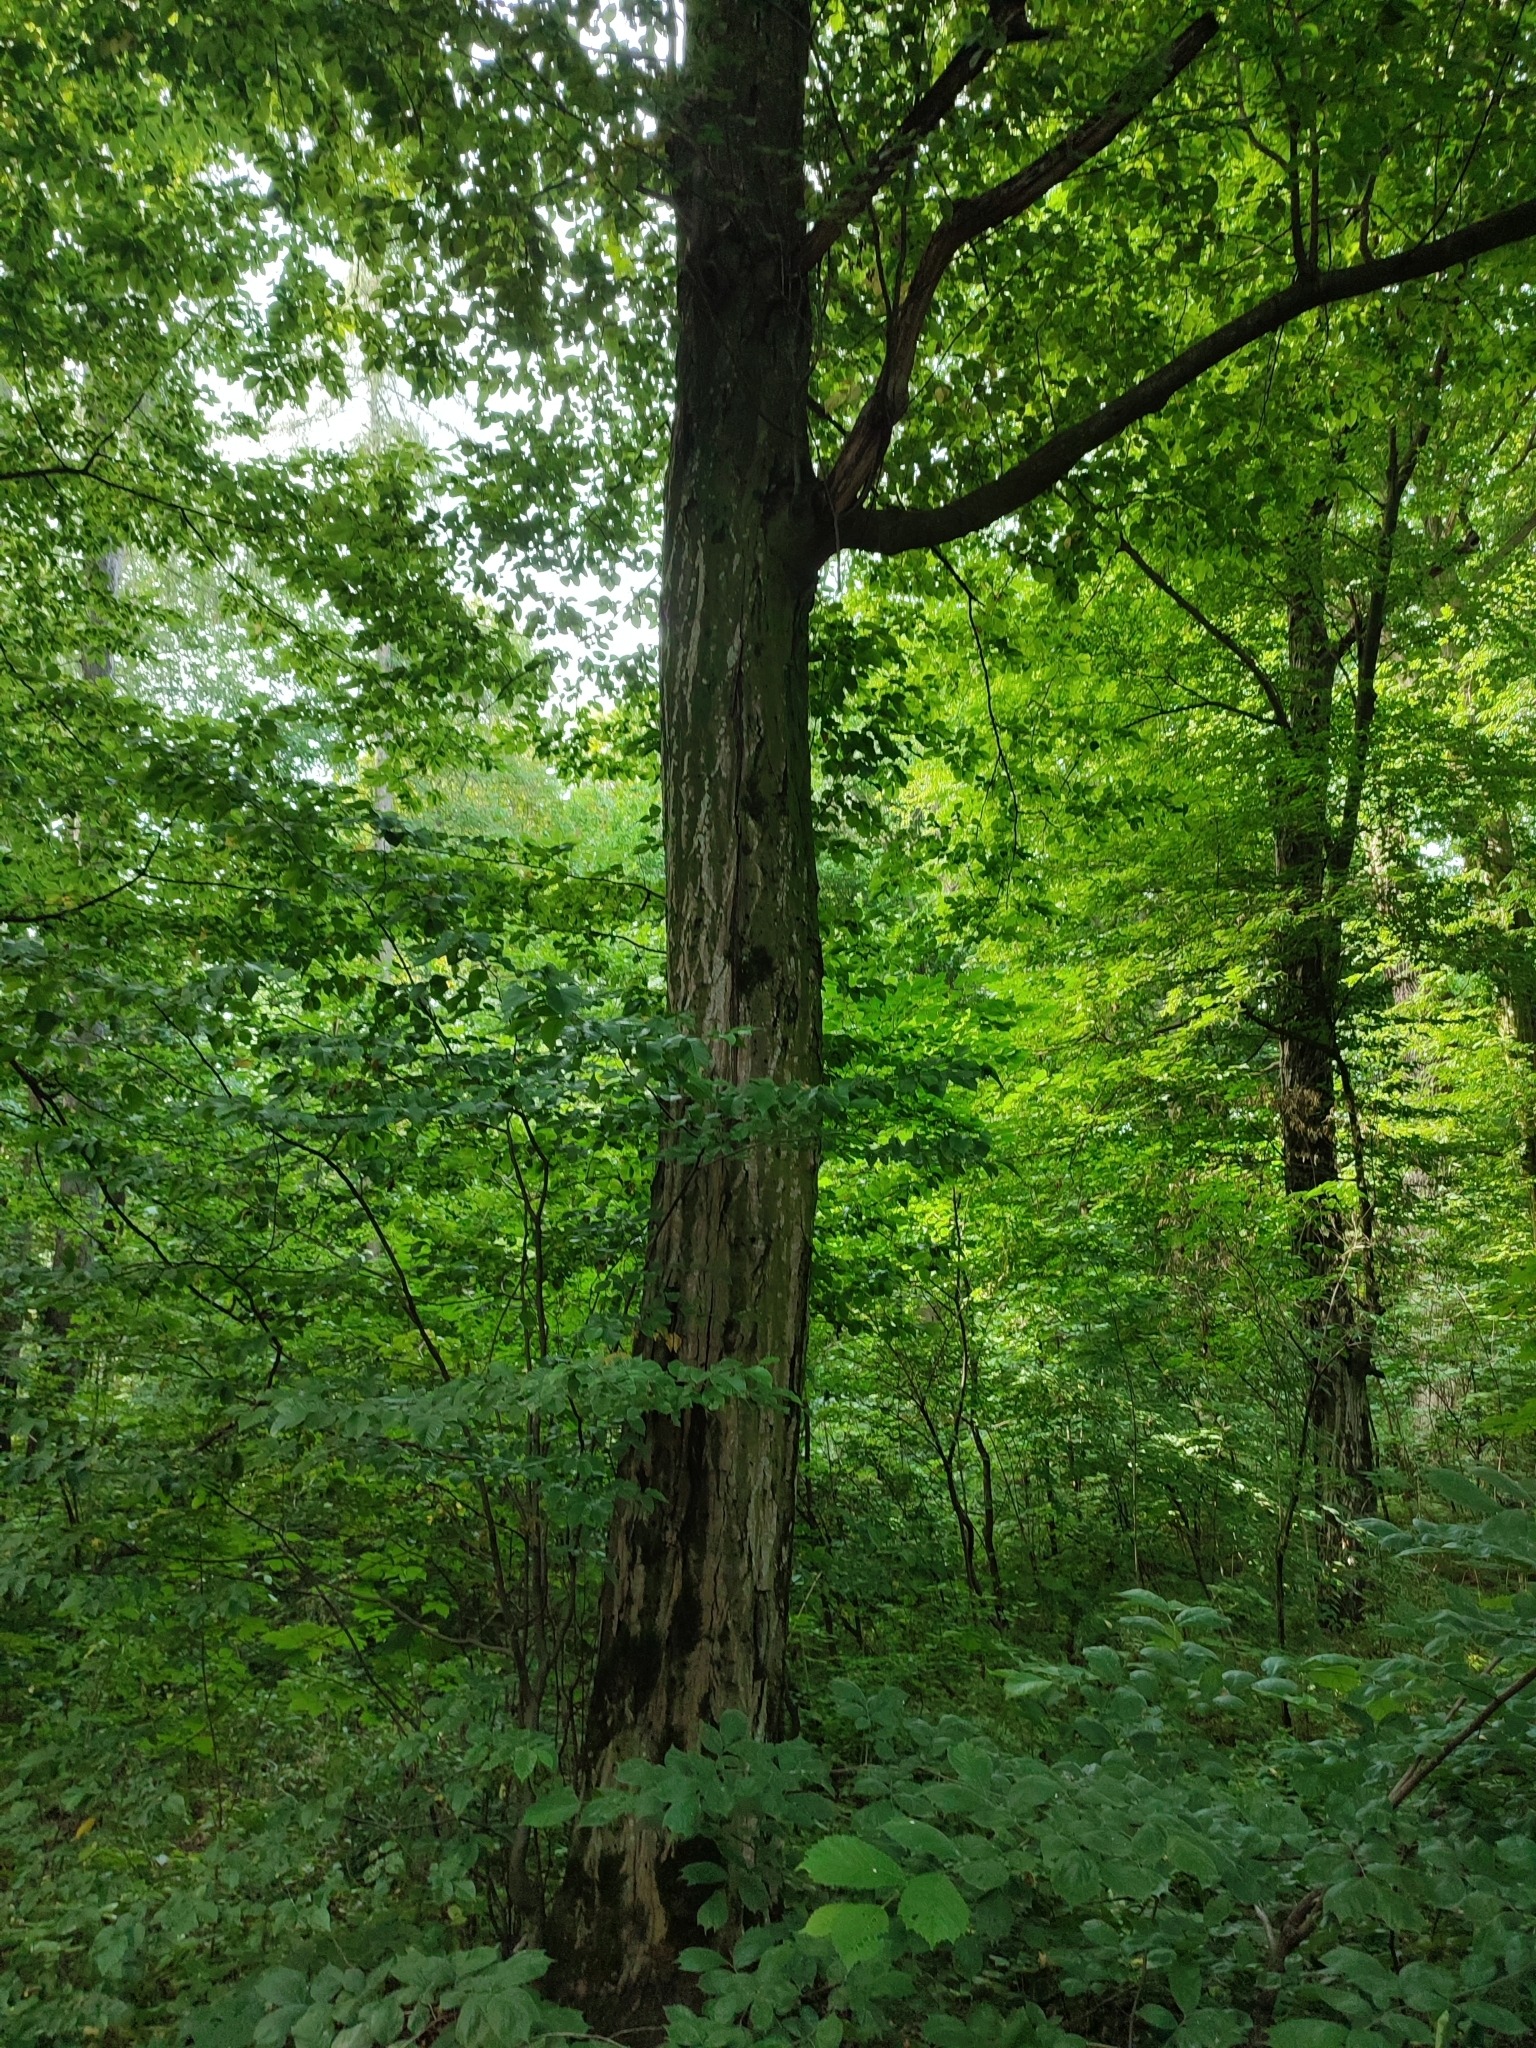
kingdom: Plantae
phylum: Tracheophyta
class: Magnoliopsida
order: Fagales
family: Betulaceae
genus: Carpinus
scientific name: Carpinus betulus
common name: Hornbeam
